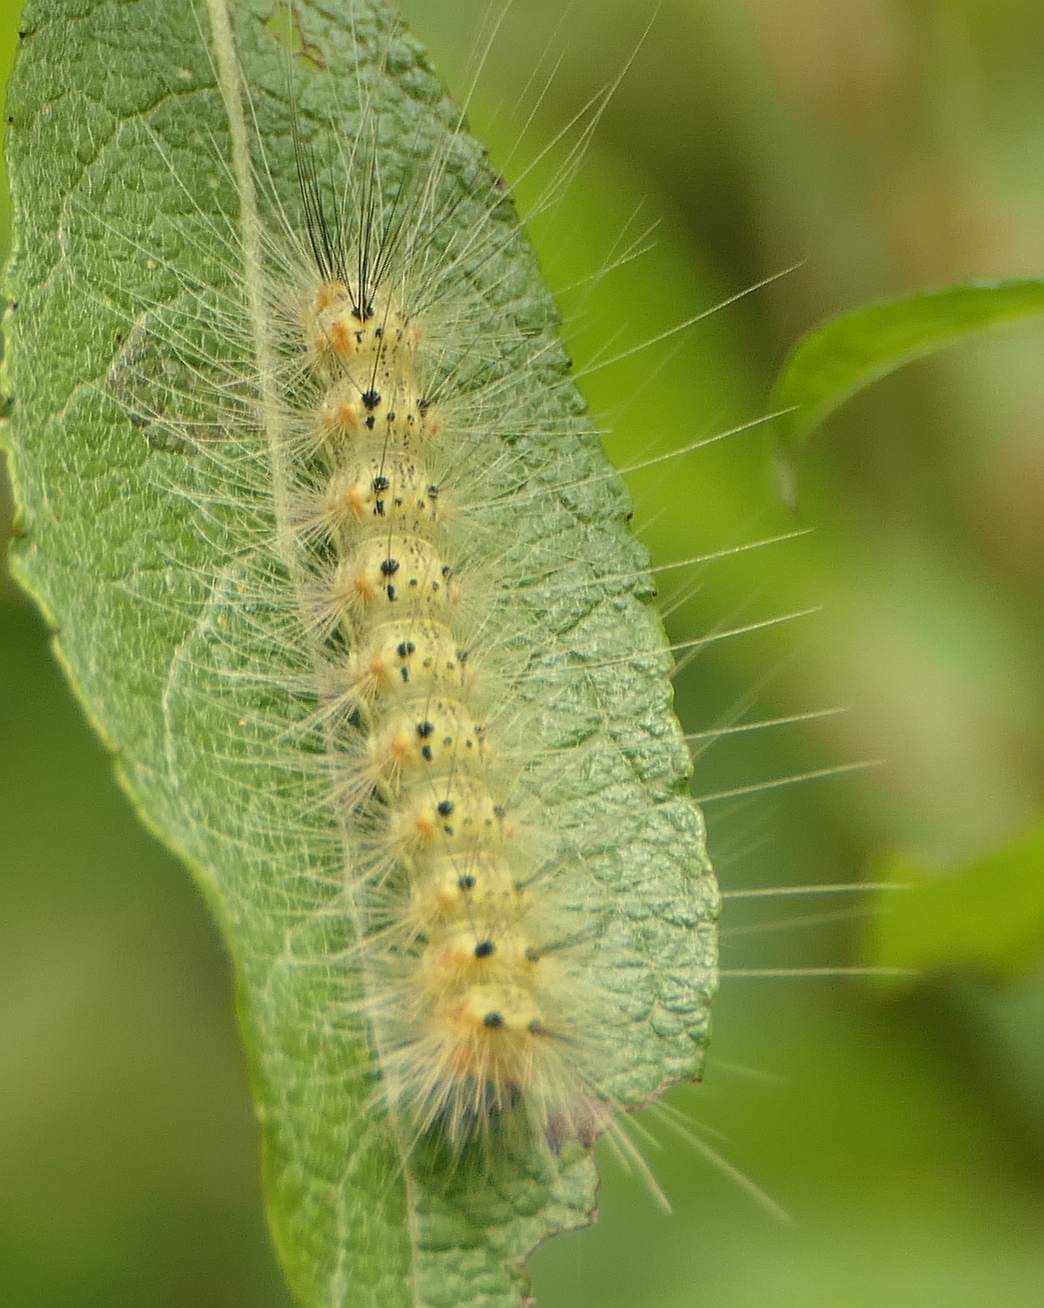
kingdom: Animalia
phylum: Arthropoda
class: Insecta
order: Lepidoptera
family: Erebidae
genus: Hyphantria
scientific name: Hyphantria cunea
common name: American white moth
